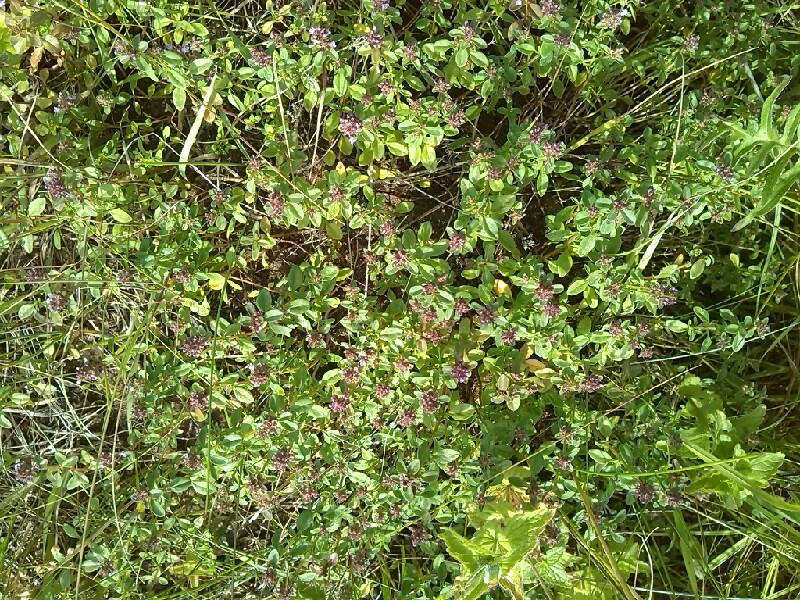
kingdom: Plantae
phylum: Tracheophyta
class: Magnoliopsida
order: Lamiales
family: Lamiaceae
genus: Thymus
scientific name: Thymus pulegioides
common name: Large thyme
